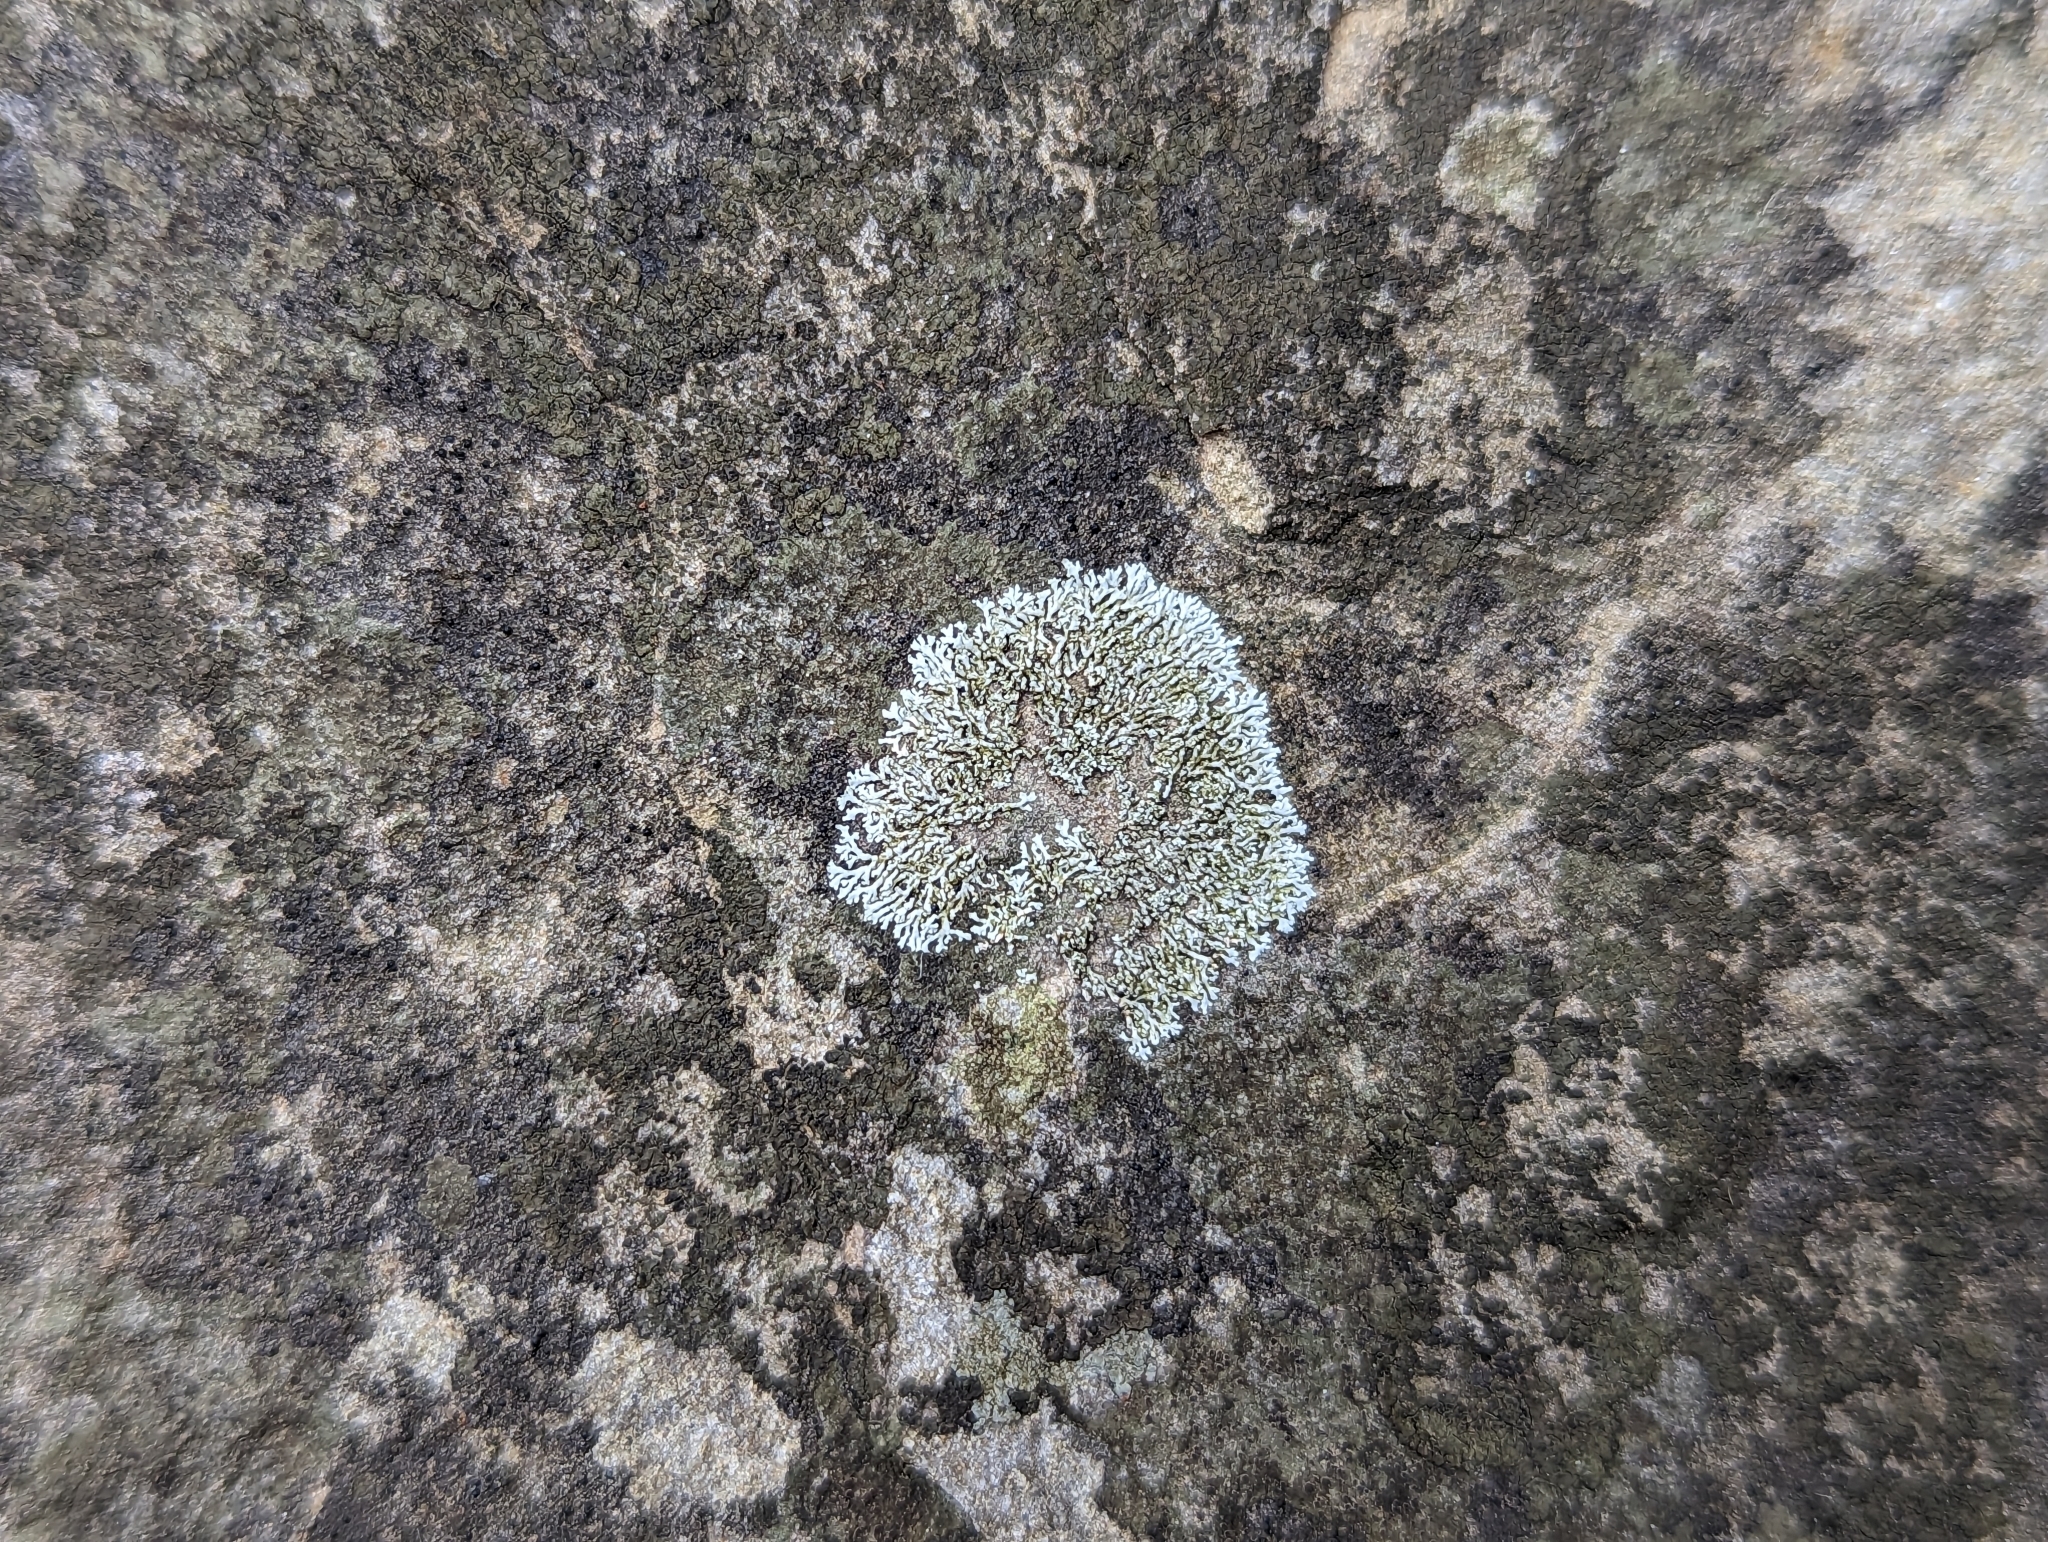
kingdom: Fungi
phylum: Ascomycota
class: Lecanoromycetes
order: Caliciales
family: Physciaceae
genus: Physcia
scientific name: Physcia thomsoniana
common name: Thomson's rosette lichen
